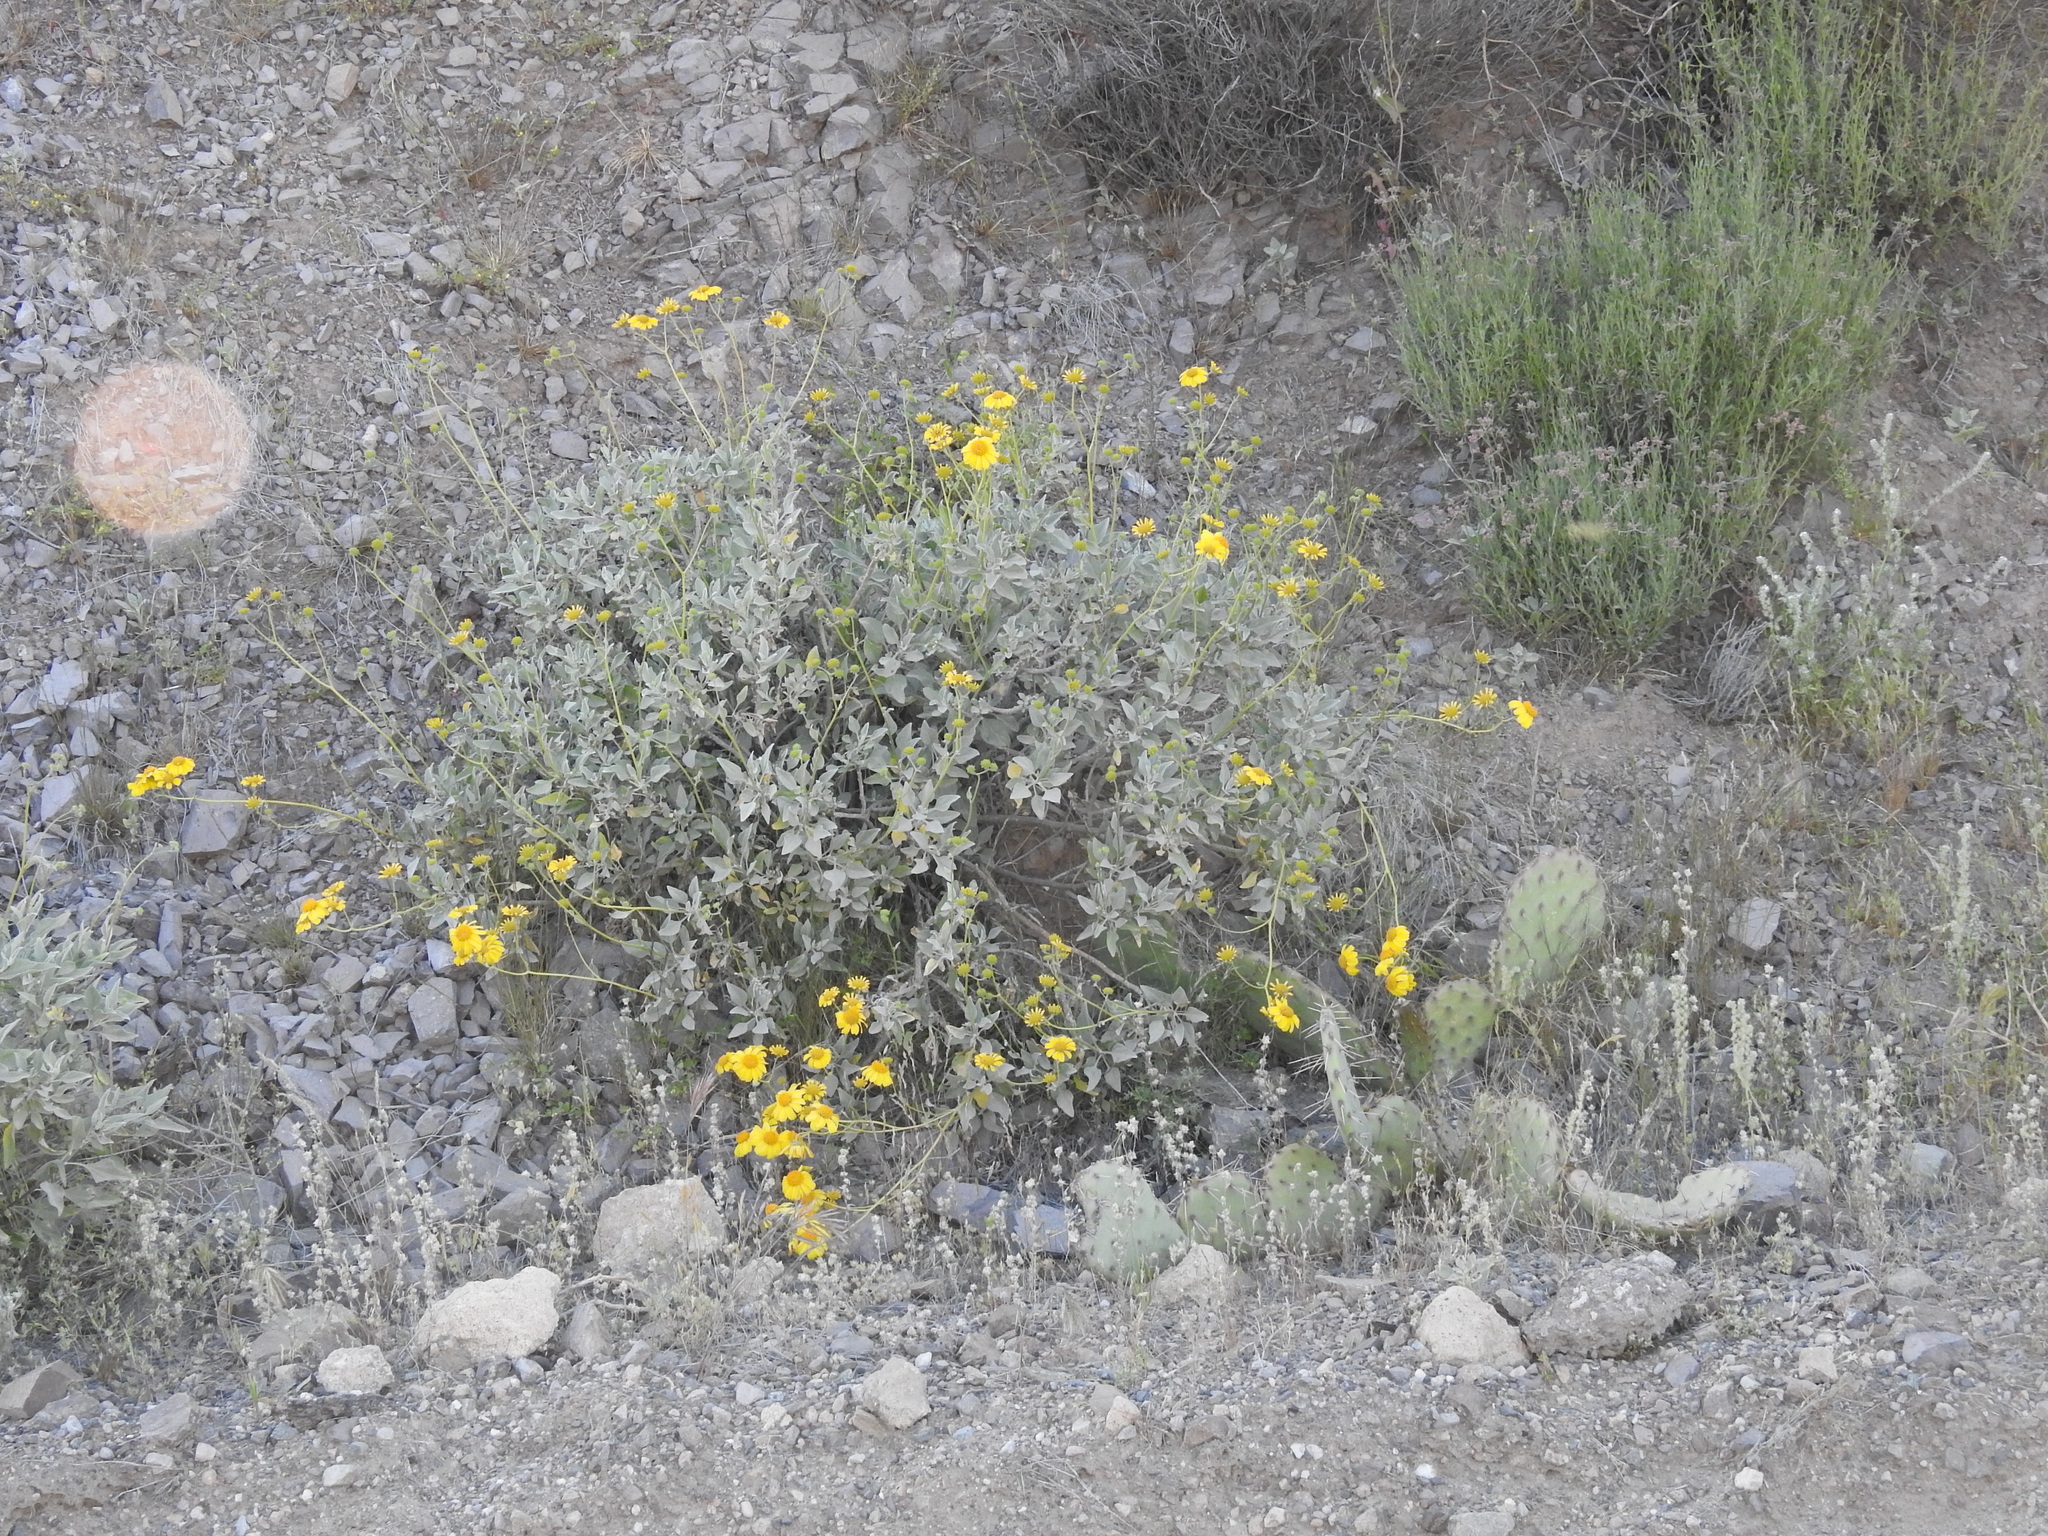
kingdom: Plantae
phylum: Tracheophyta
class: Magnoliopsida
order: Asterales
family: Asteraceae
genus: Encelia
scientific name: Encelia farinosa
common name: Brittlebush
